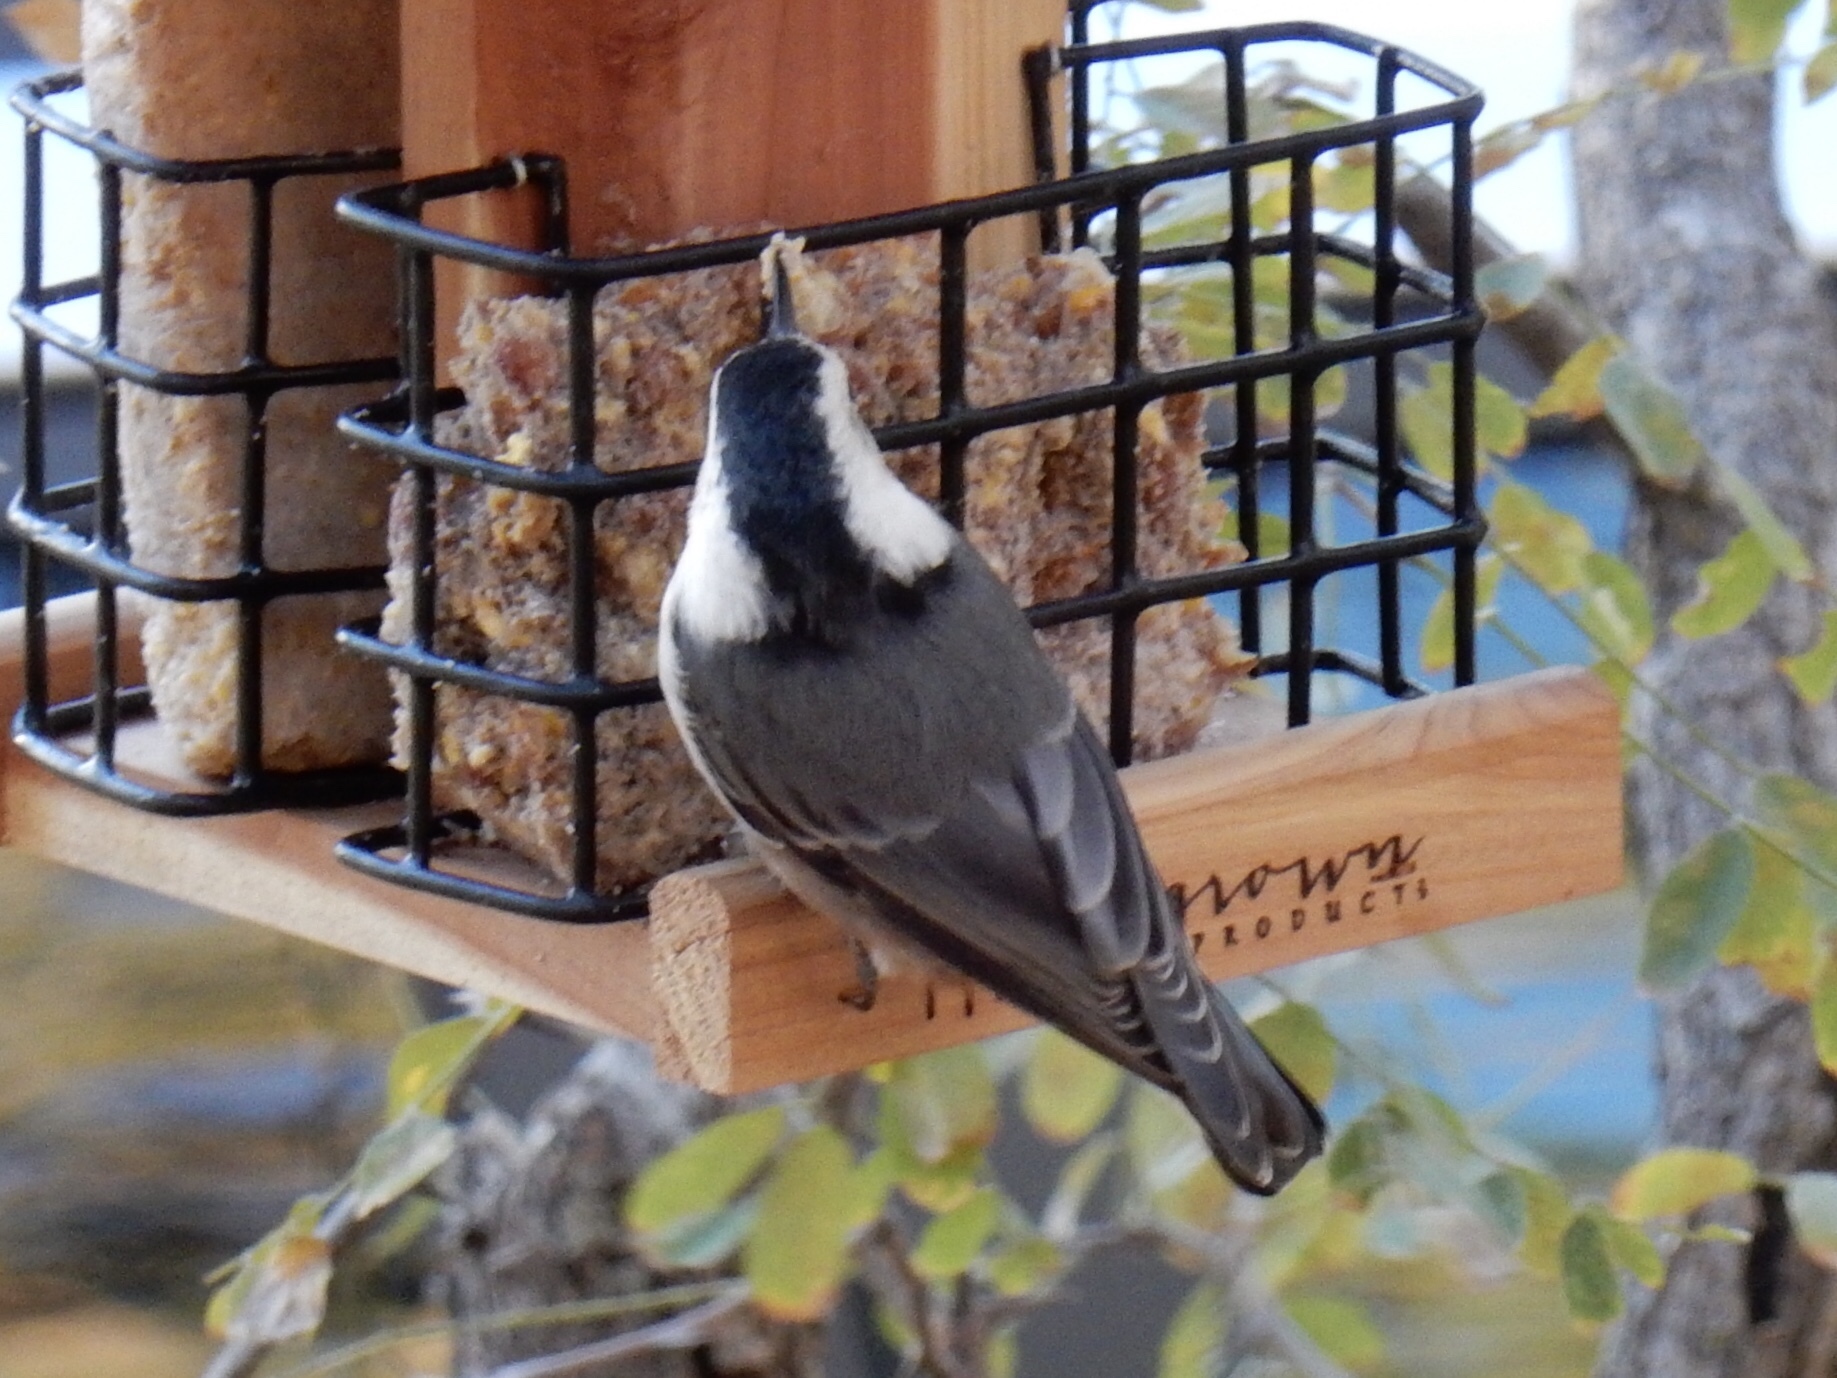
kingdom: Animalia
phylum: Chordata
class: Aves
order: Passeriformes
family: Sittidae
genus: Sitta
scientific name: Sitta carolinensis
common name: White-breasted nuthatch
